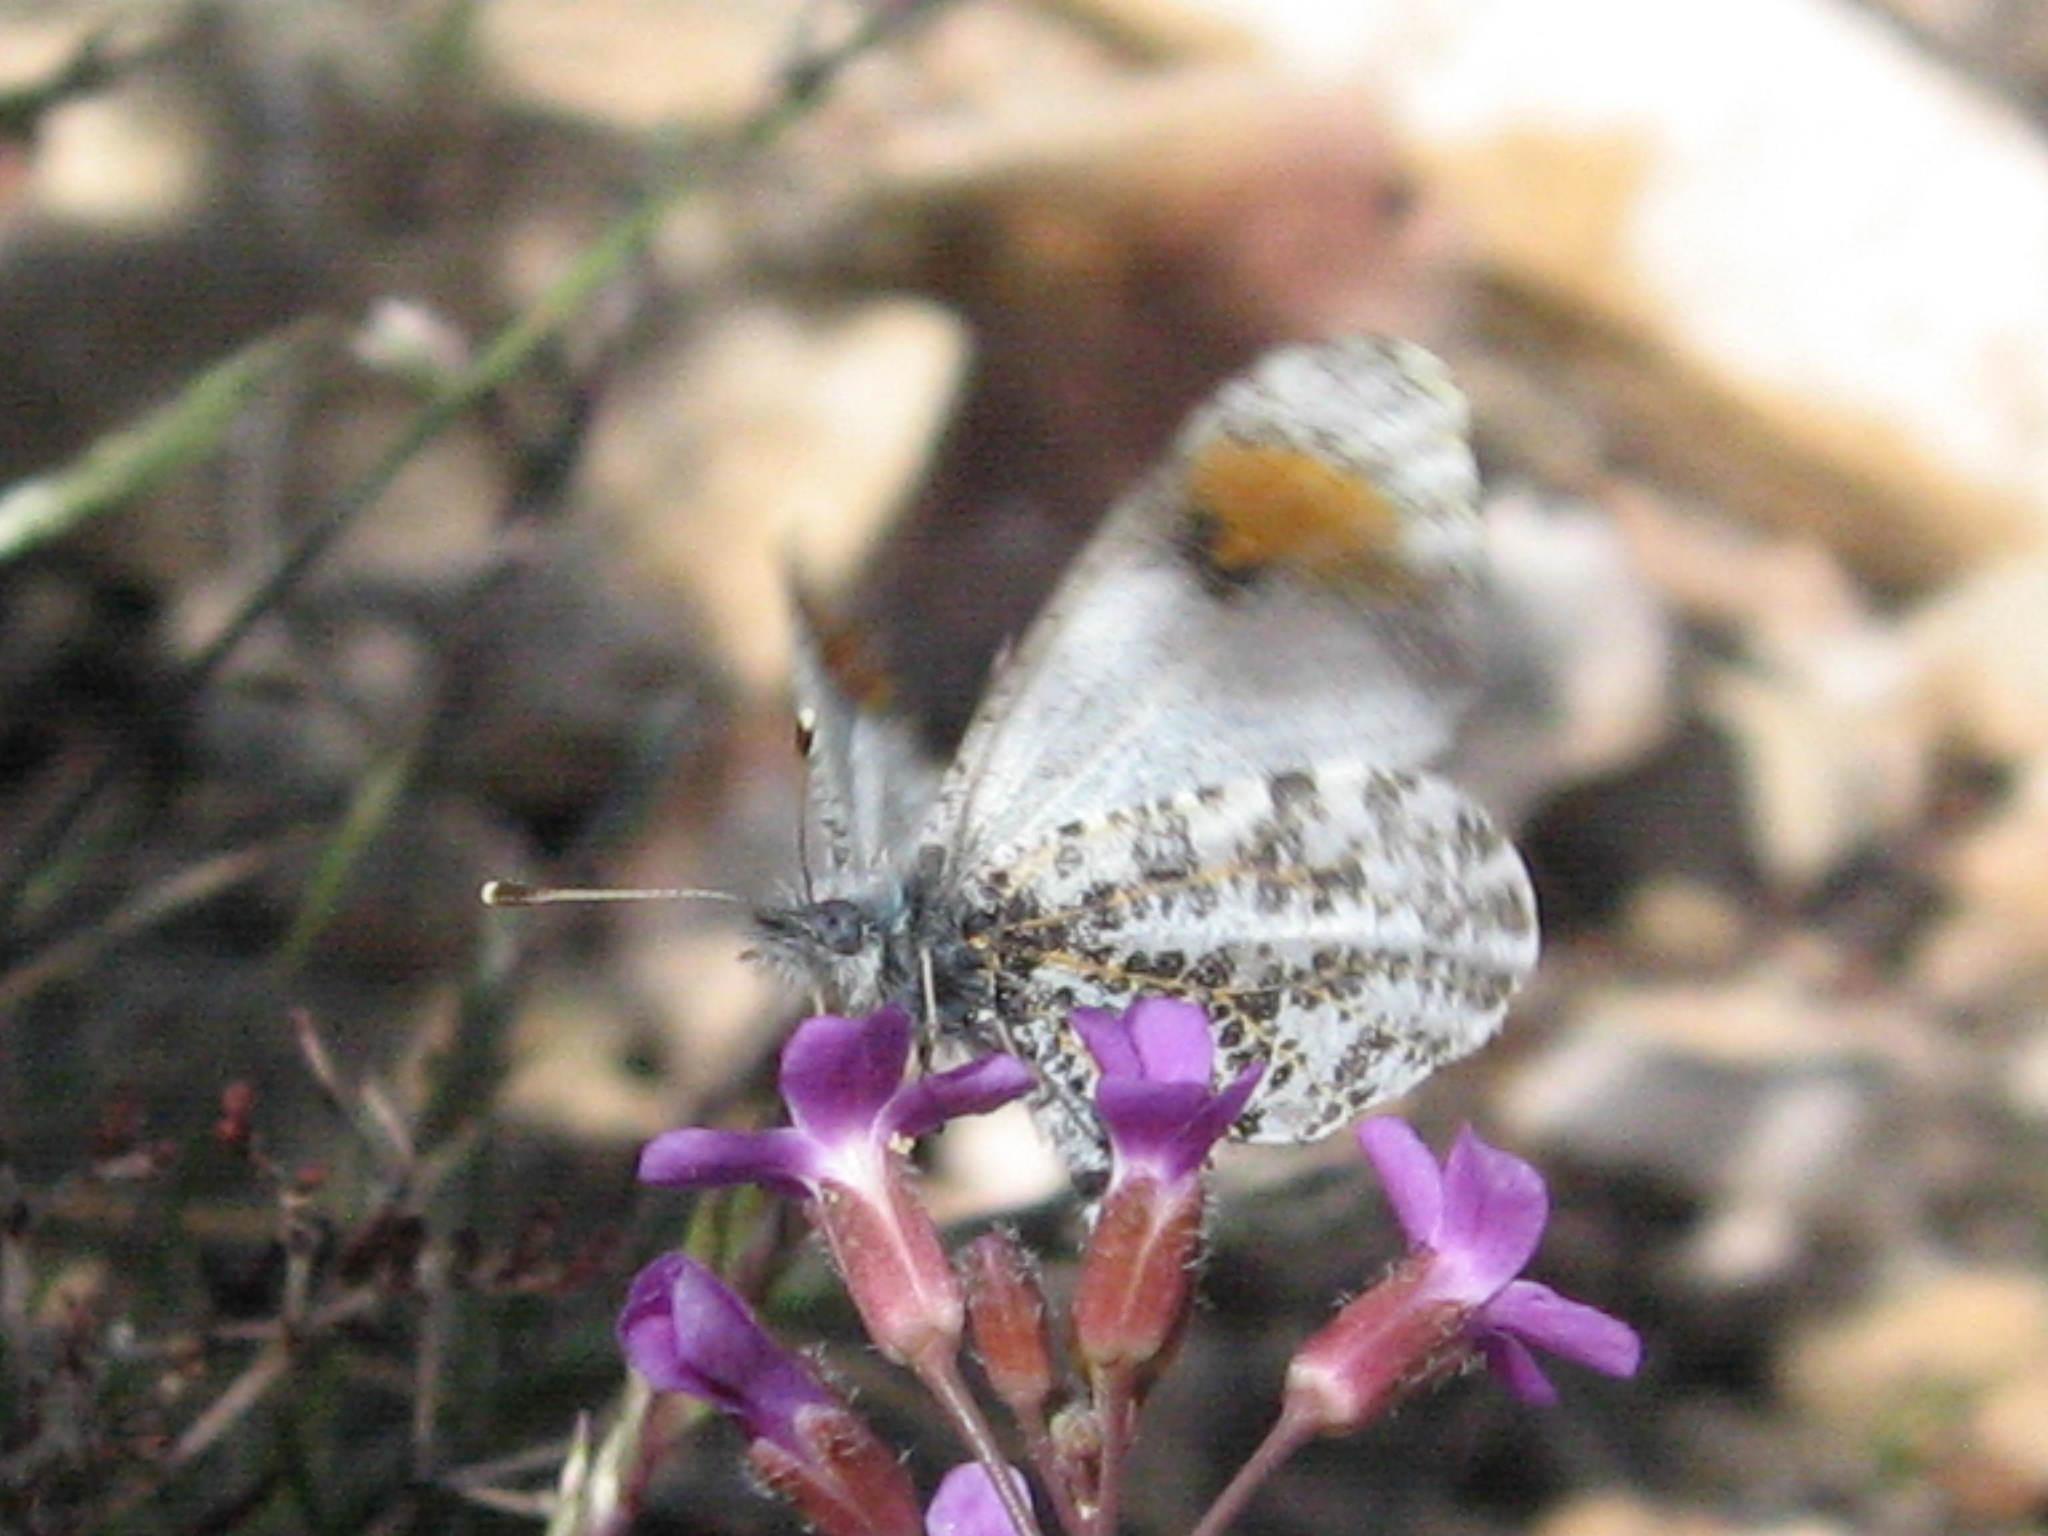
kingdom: Animalia
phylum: Arthropoda
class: Insecta
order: Lepidoptera
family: Pieridae
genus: Anthocharis
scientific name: Anthocharis thoosa
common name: Southwestern orangetip
